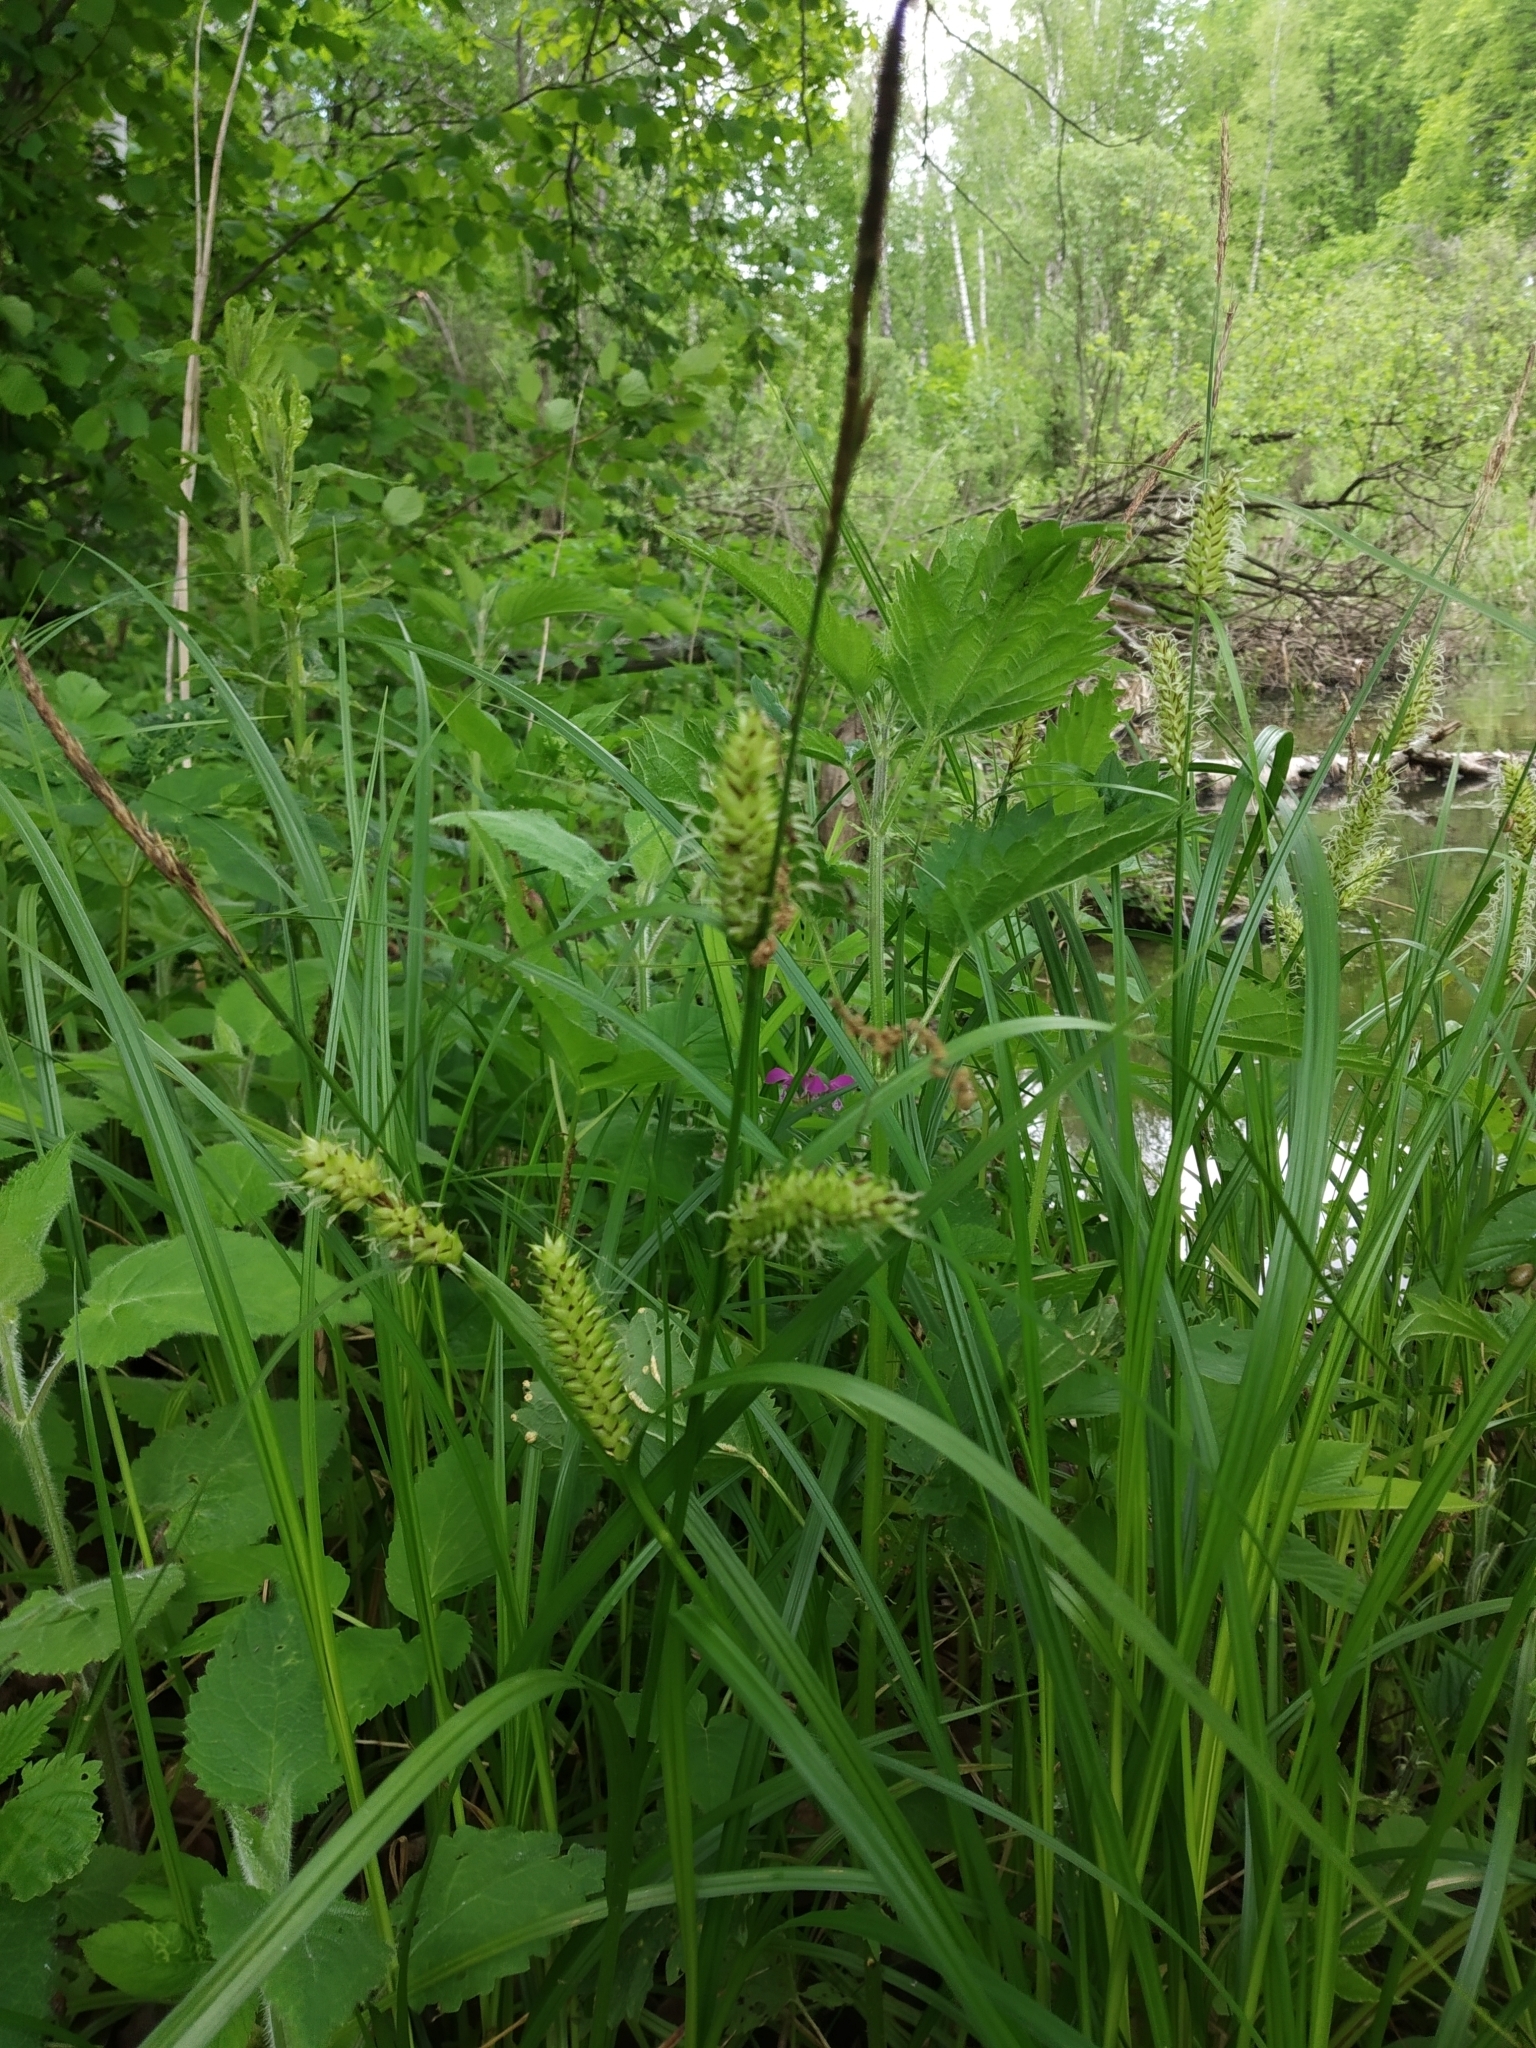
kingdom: Plantae
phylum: Tracheophyta
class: Liliopsida
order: Poales
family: Cyperaceae
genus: Carex
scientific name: Carex vesicaria
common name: Bladder-sedge
